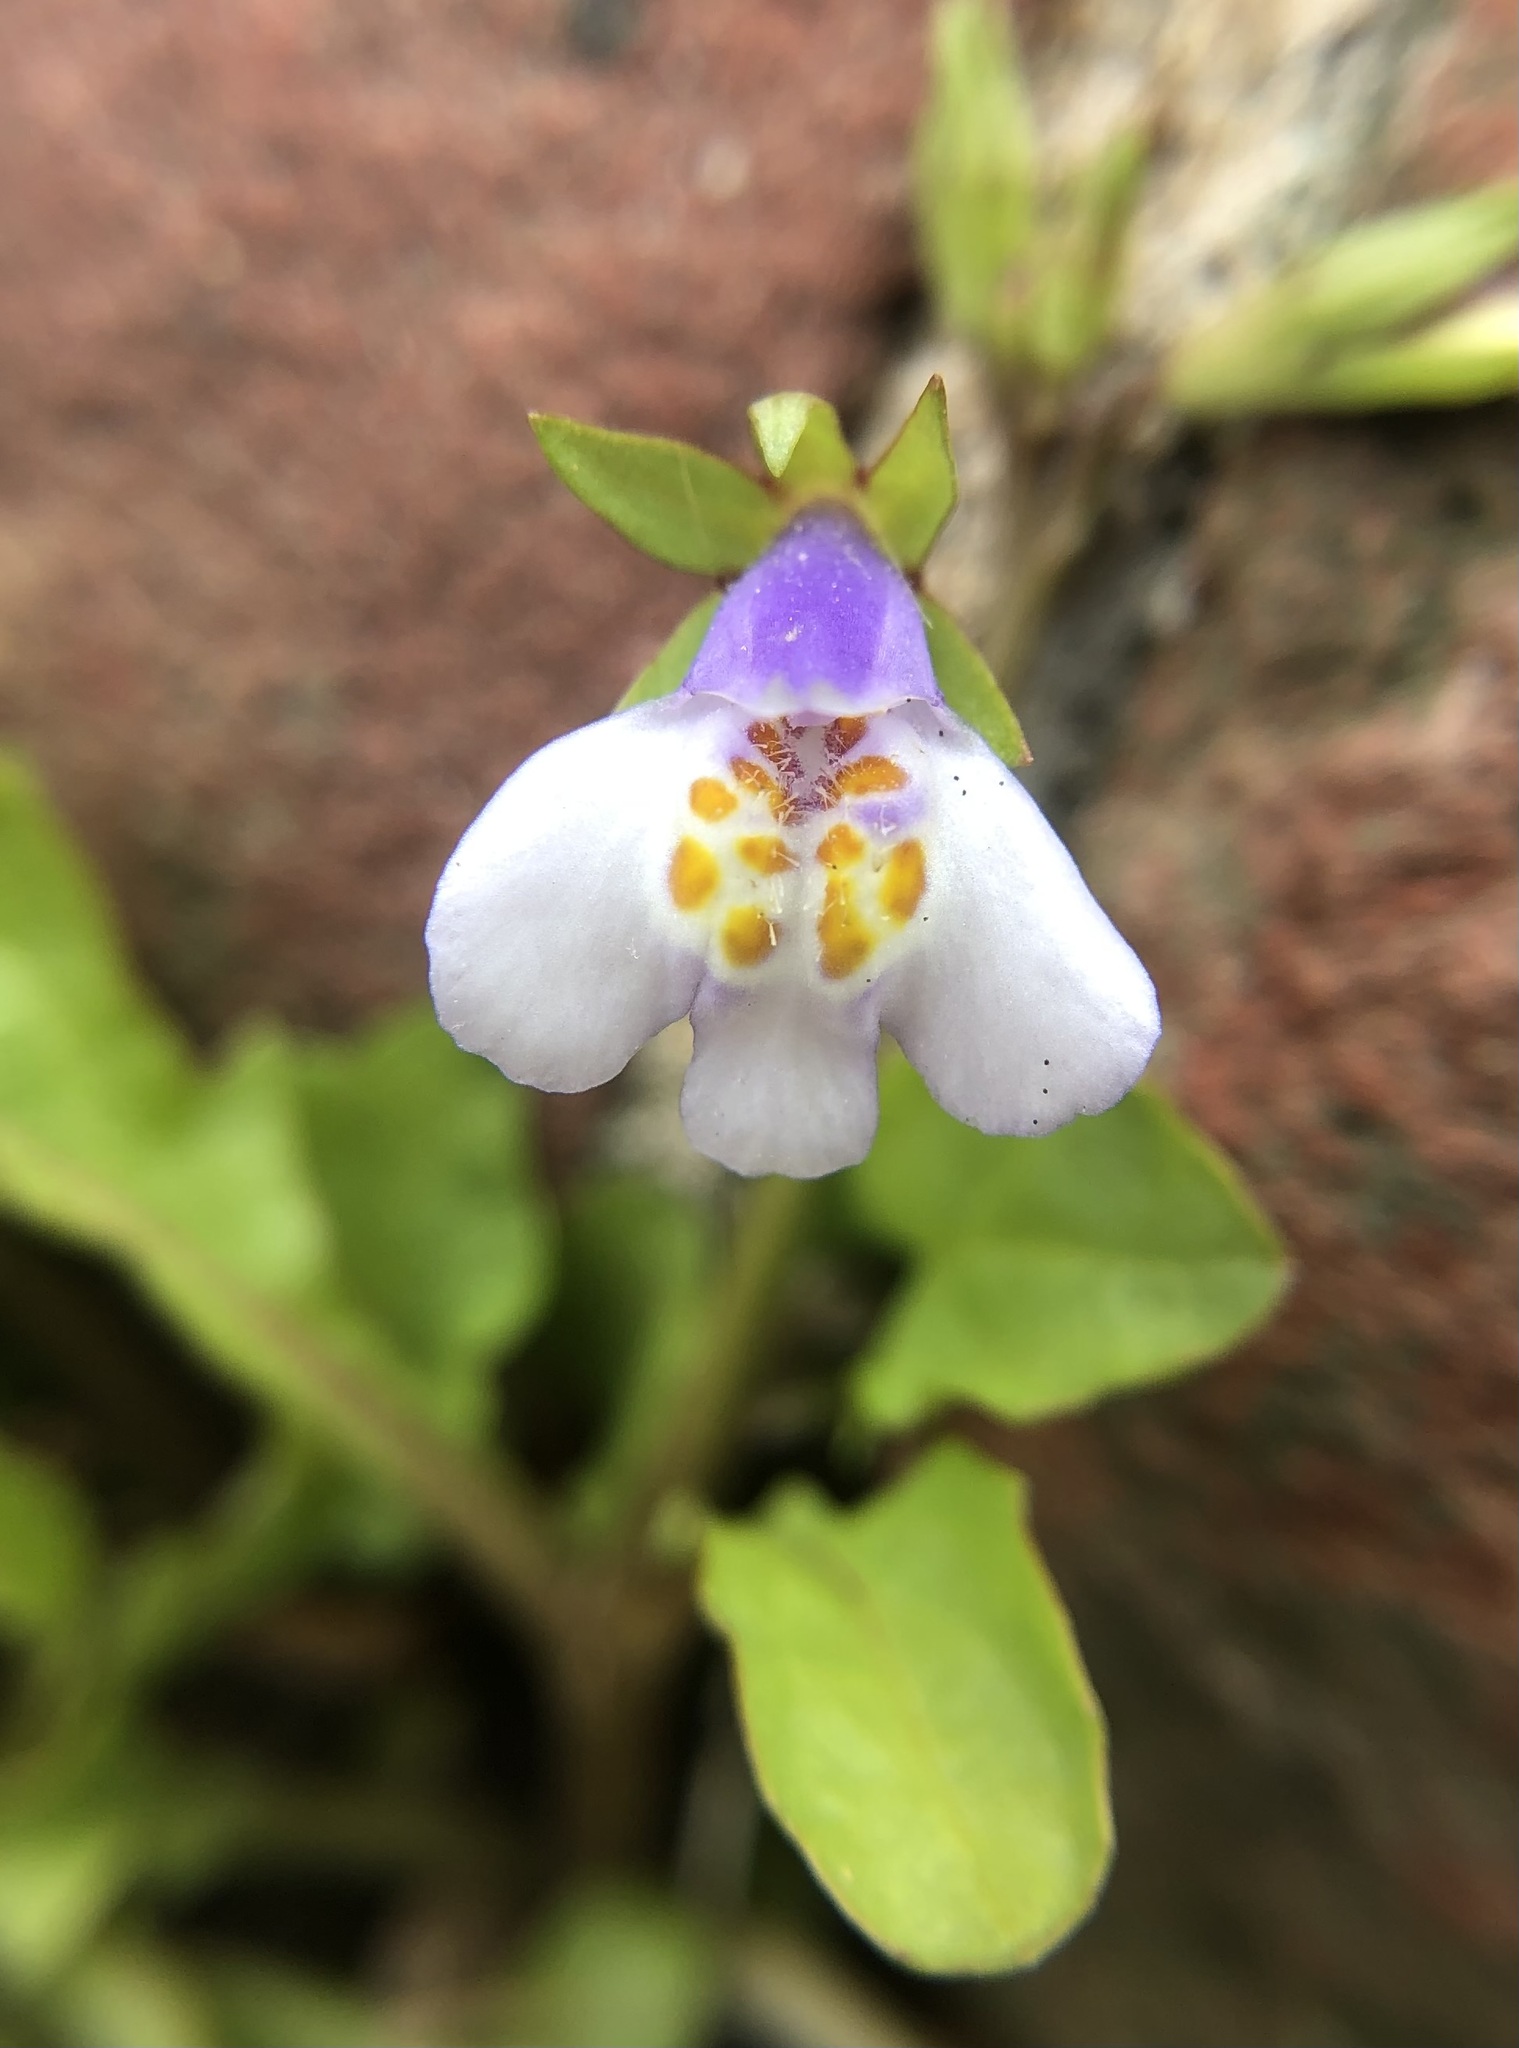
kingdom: Plantae
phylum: Tracheophyta
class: Magnoliopsida
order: Lamiales
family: Mazaceae
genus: Mazus
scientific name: Mazus pumilus
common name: Japanese mazus
